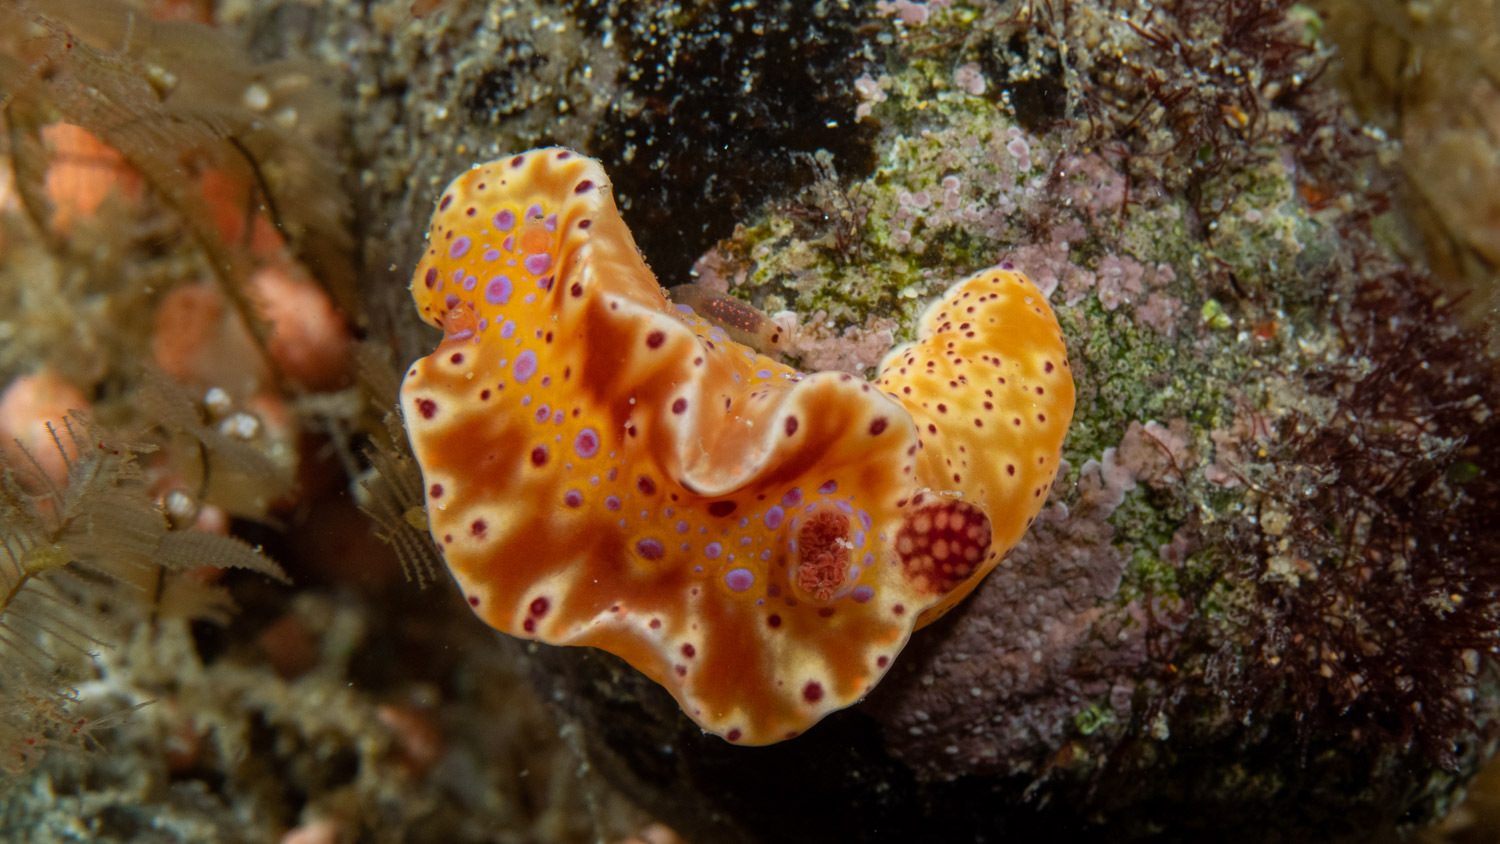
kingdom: Animalia
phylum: Mollusca
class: Gastropoda
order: Nudibranchia
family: Chromodorididae
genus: Ceratosoma
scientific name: Ceratosoma brevicaudatum
